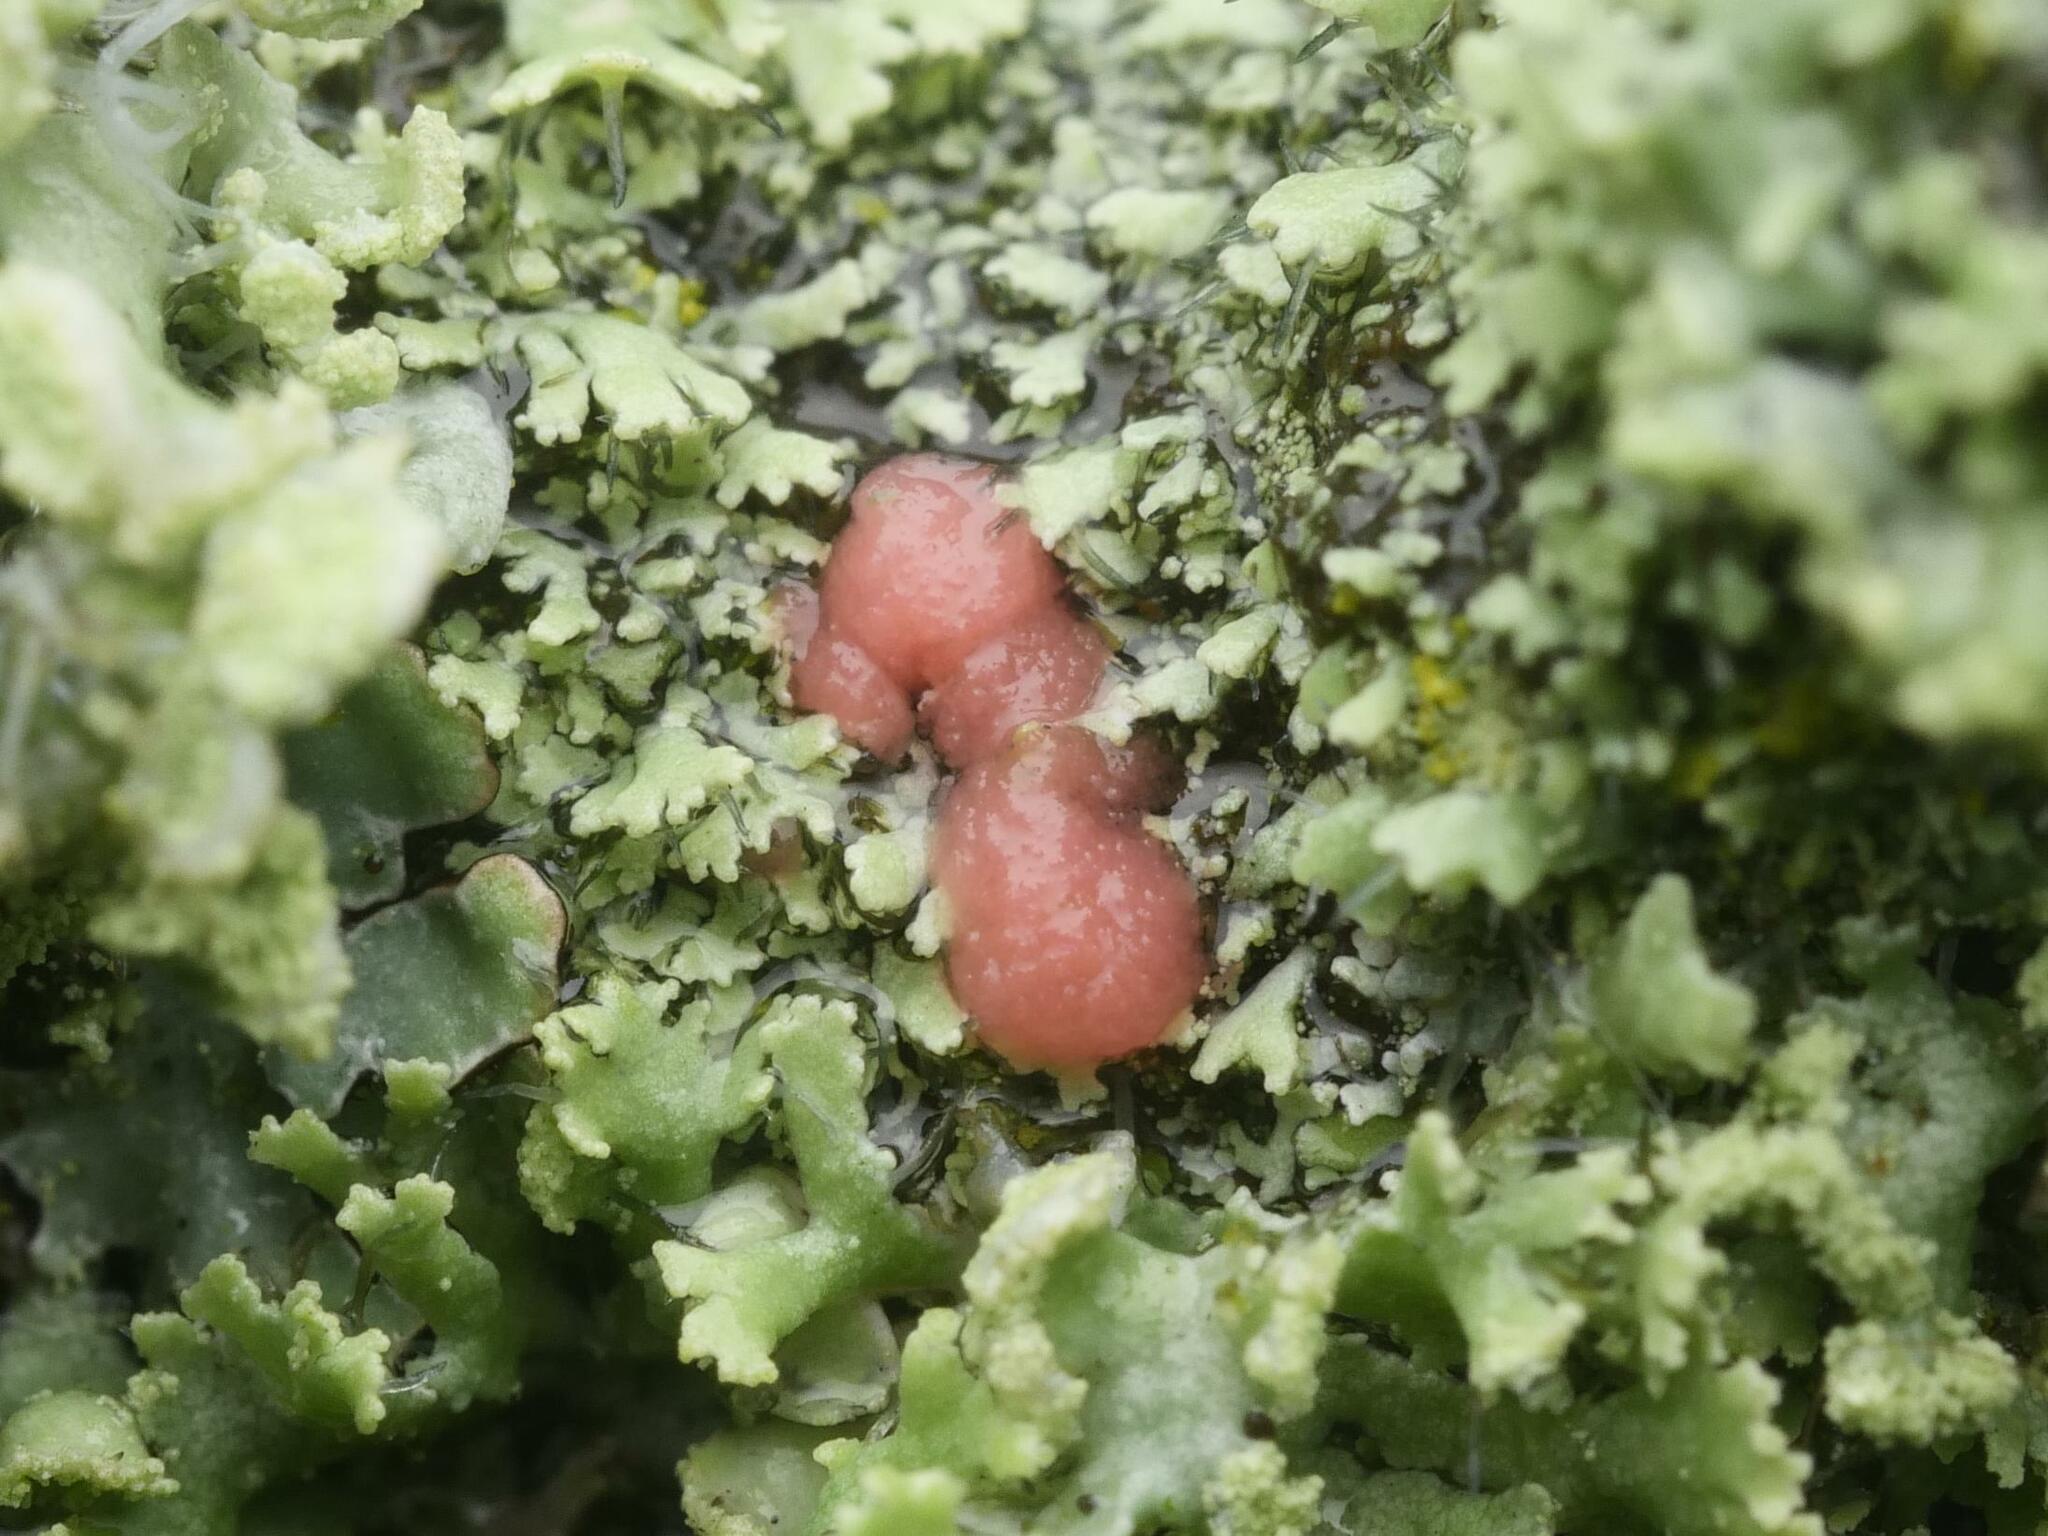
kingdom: Fungi
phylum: Ascomycota
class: Sordariomycetes
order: Hypocreales
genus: Illosporiopsis
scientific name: Illosporiopsis christiansenii
